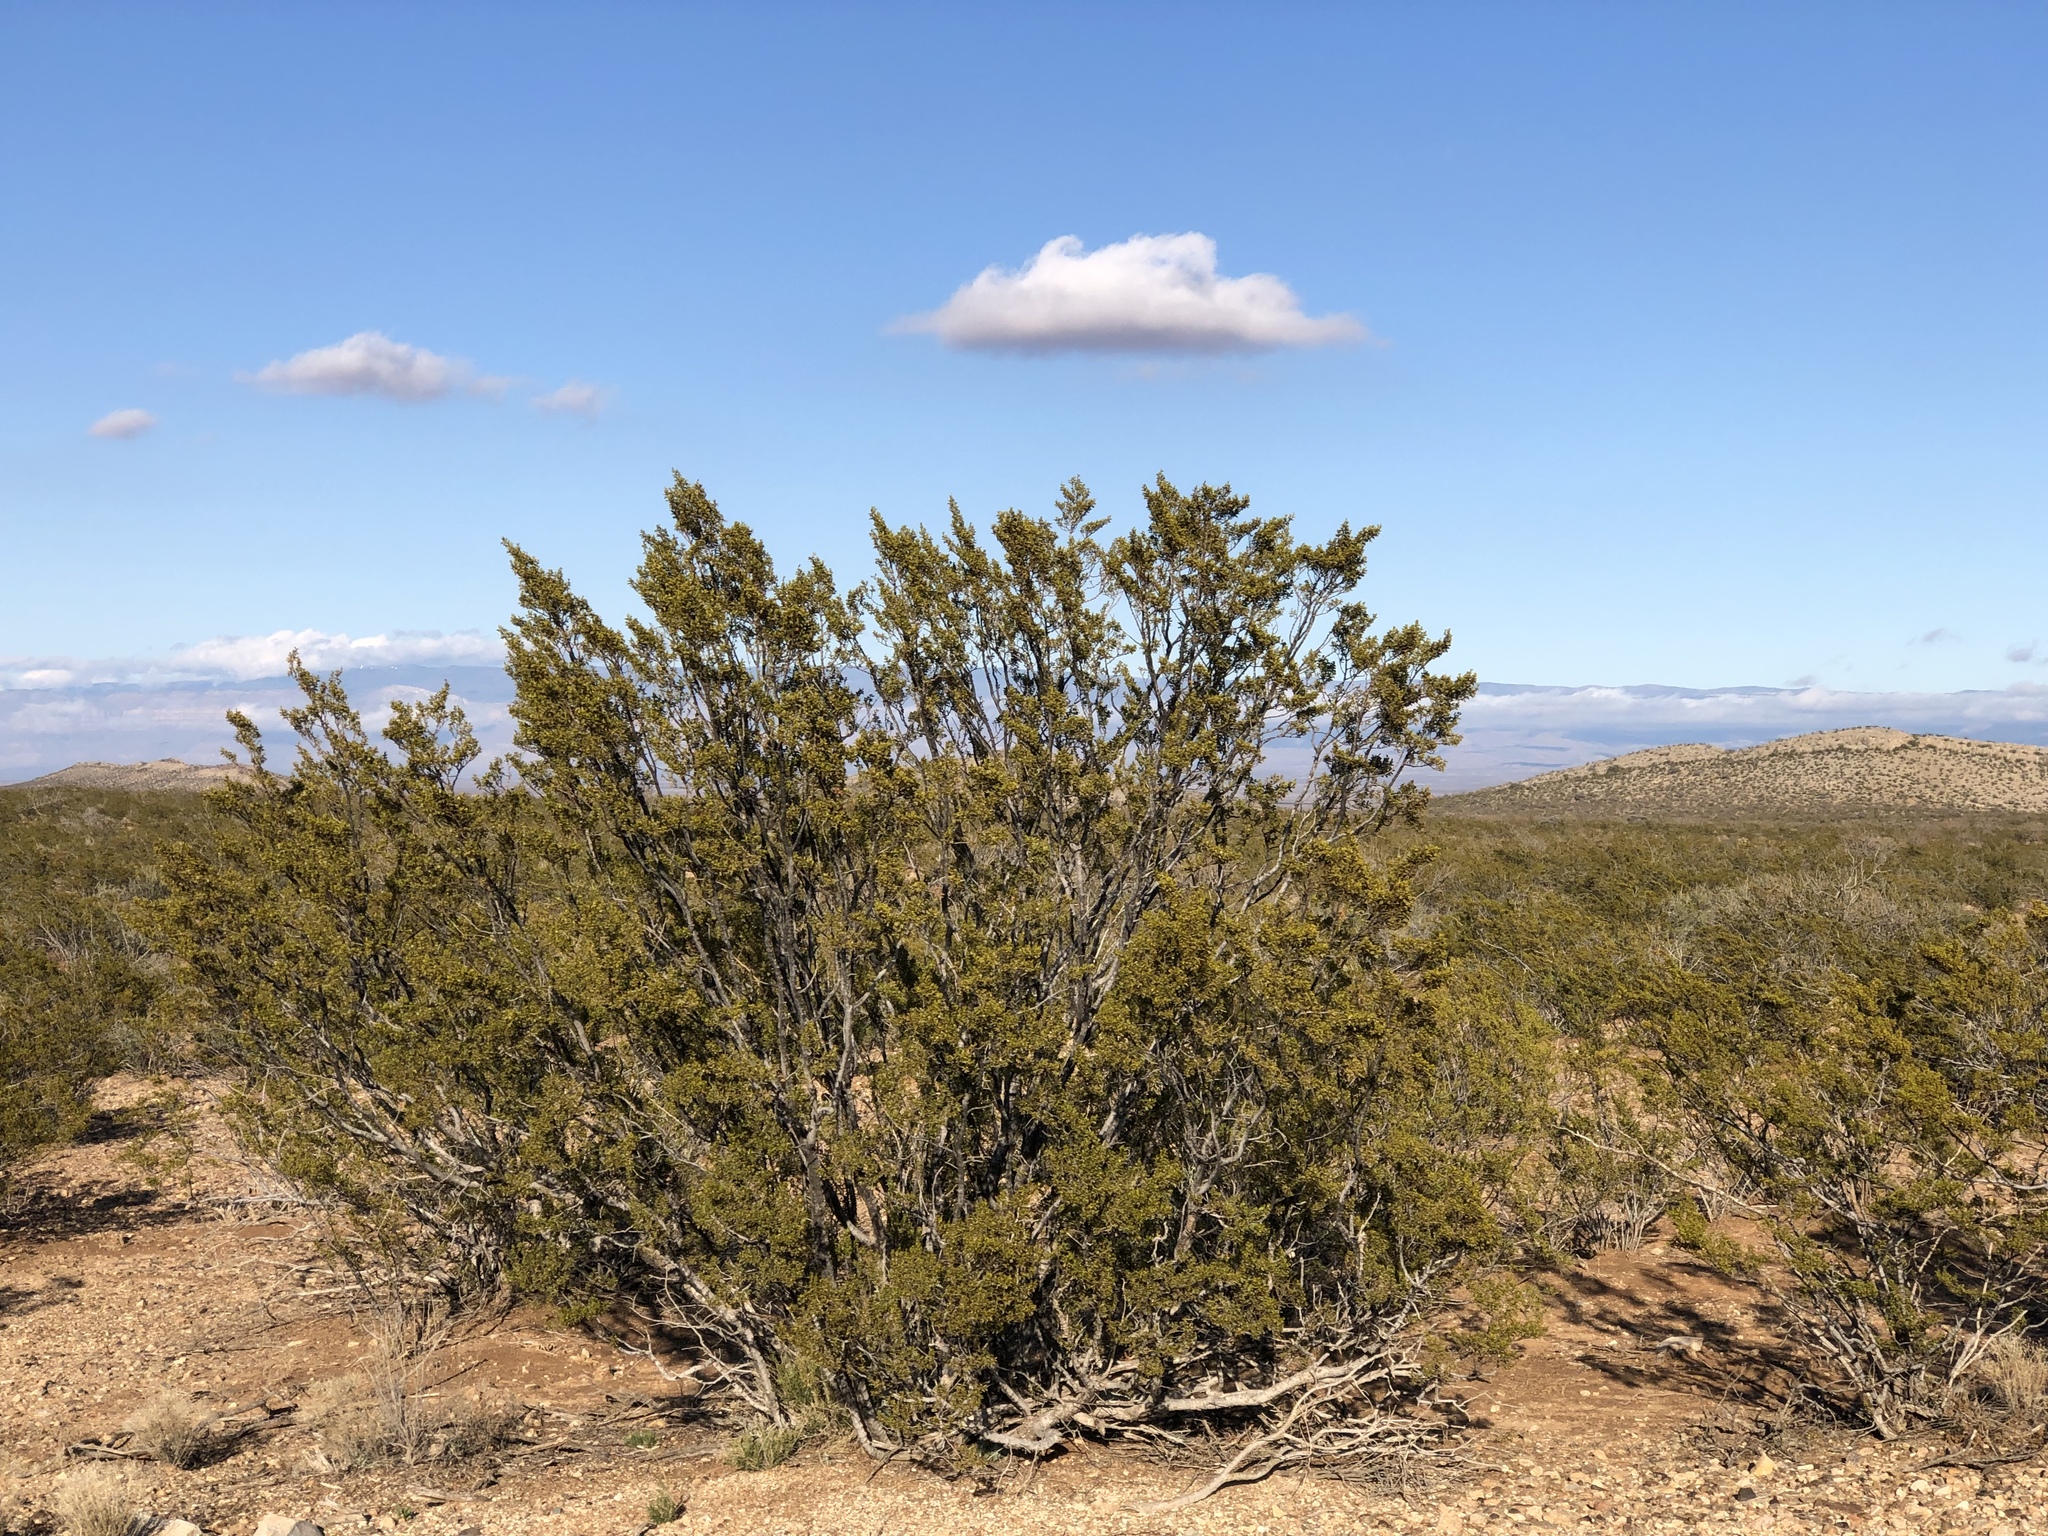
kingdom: Plantae
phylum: Tracheophyta
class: Magnoliopsida
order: Zygophyllales
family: Zygophyllaceae
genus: Larrea
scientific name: Larrea tridentata
